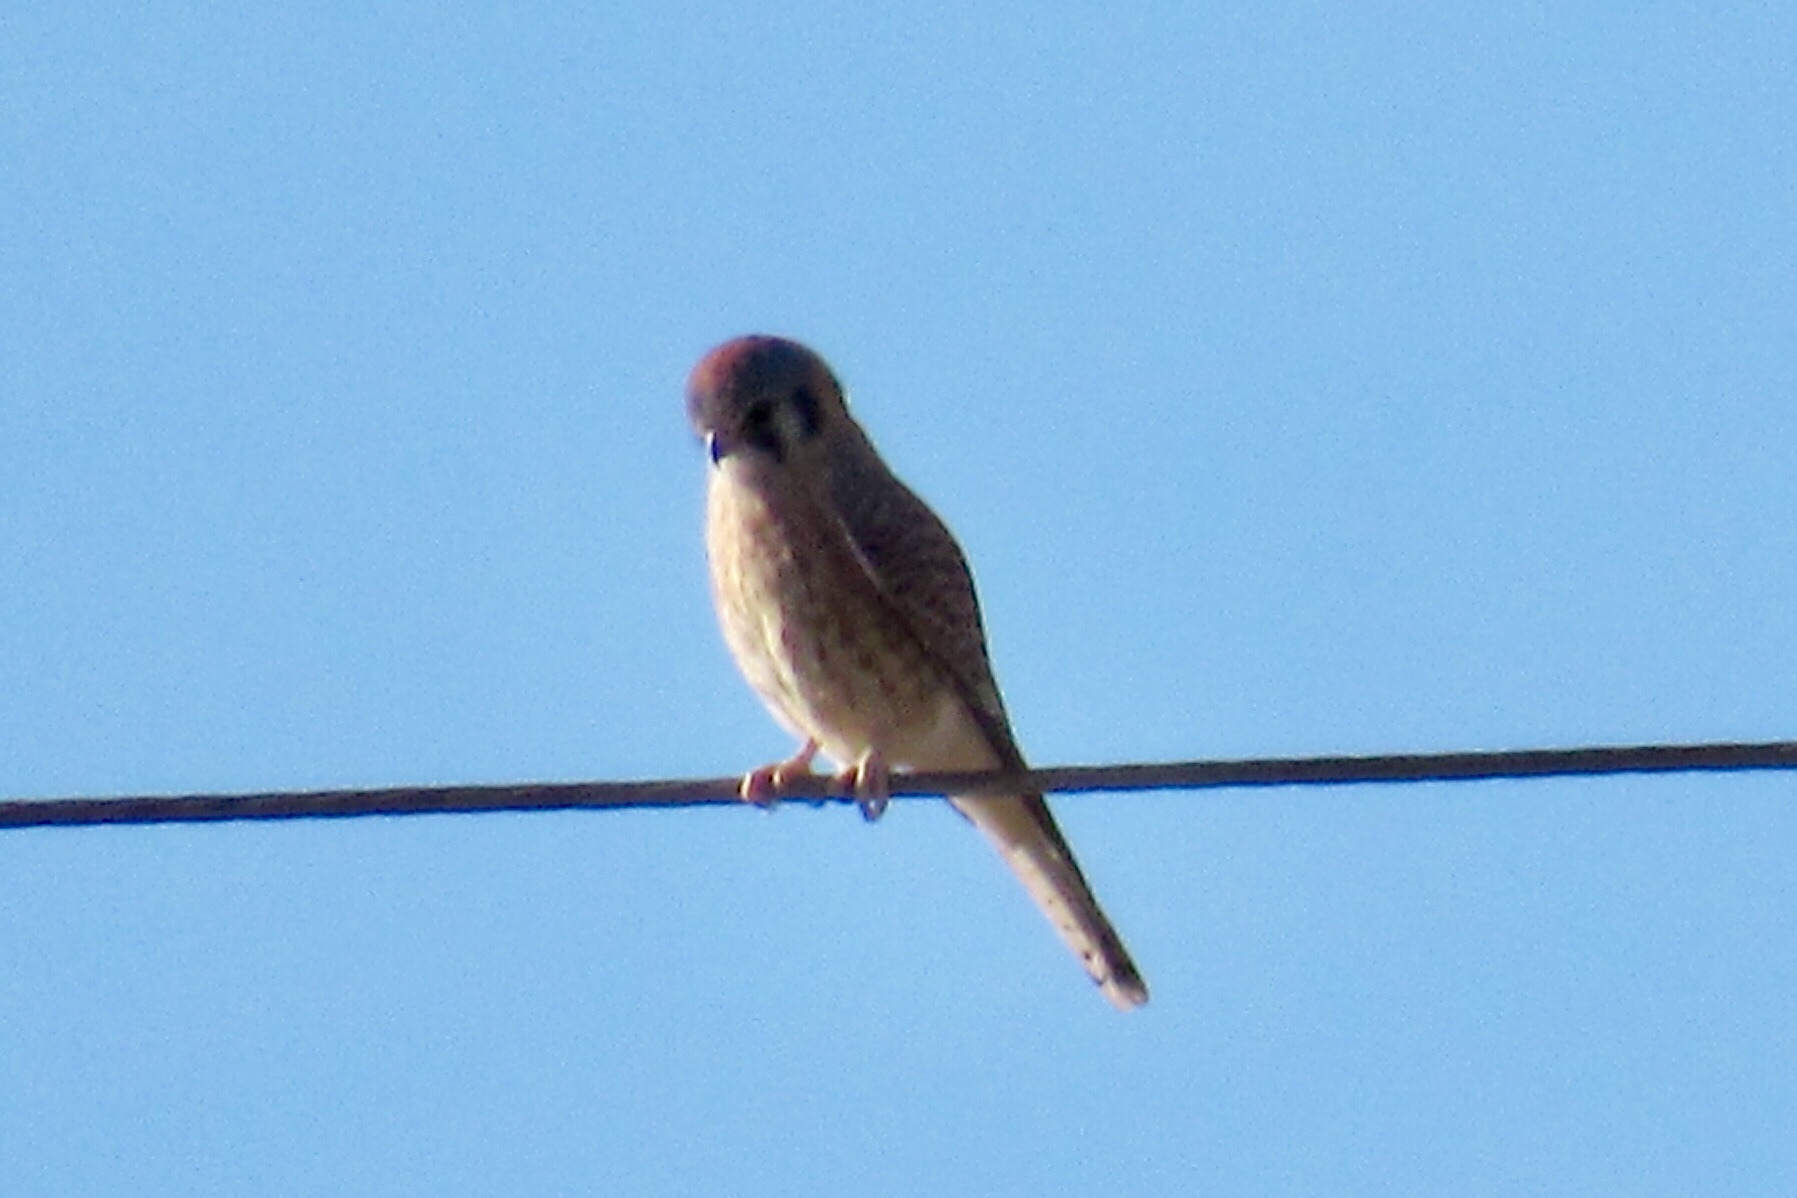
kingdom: Animalia
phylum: Chordata
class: Aves
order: Falconiformes
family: Falconidae
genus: Falco
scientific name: Falco sparverius
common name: American kestrel
